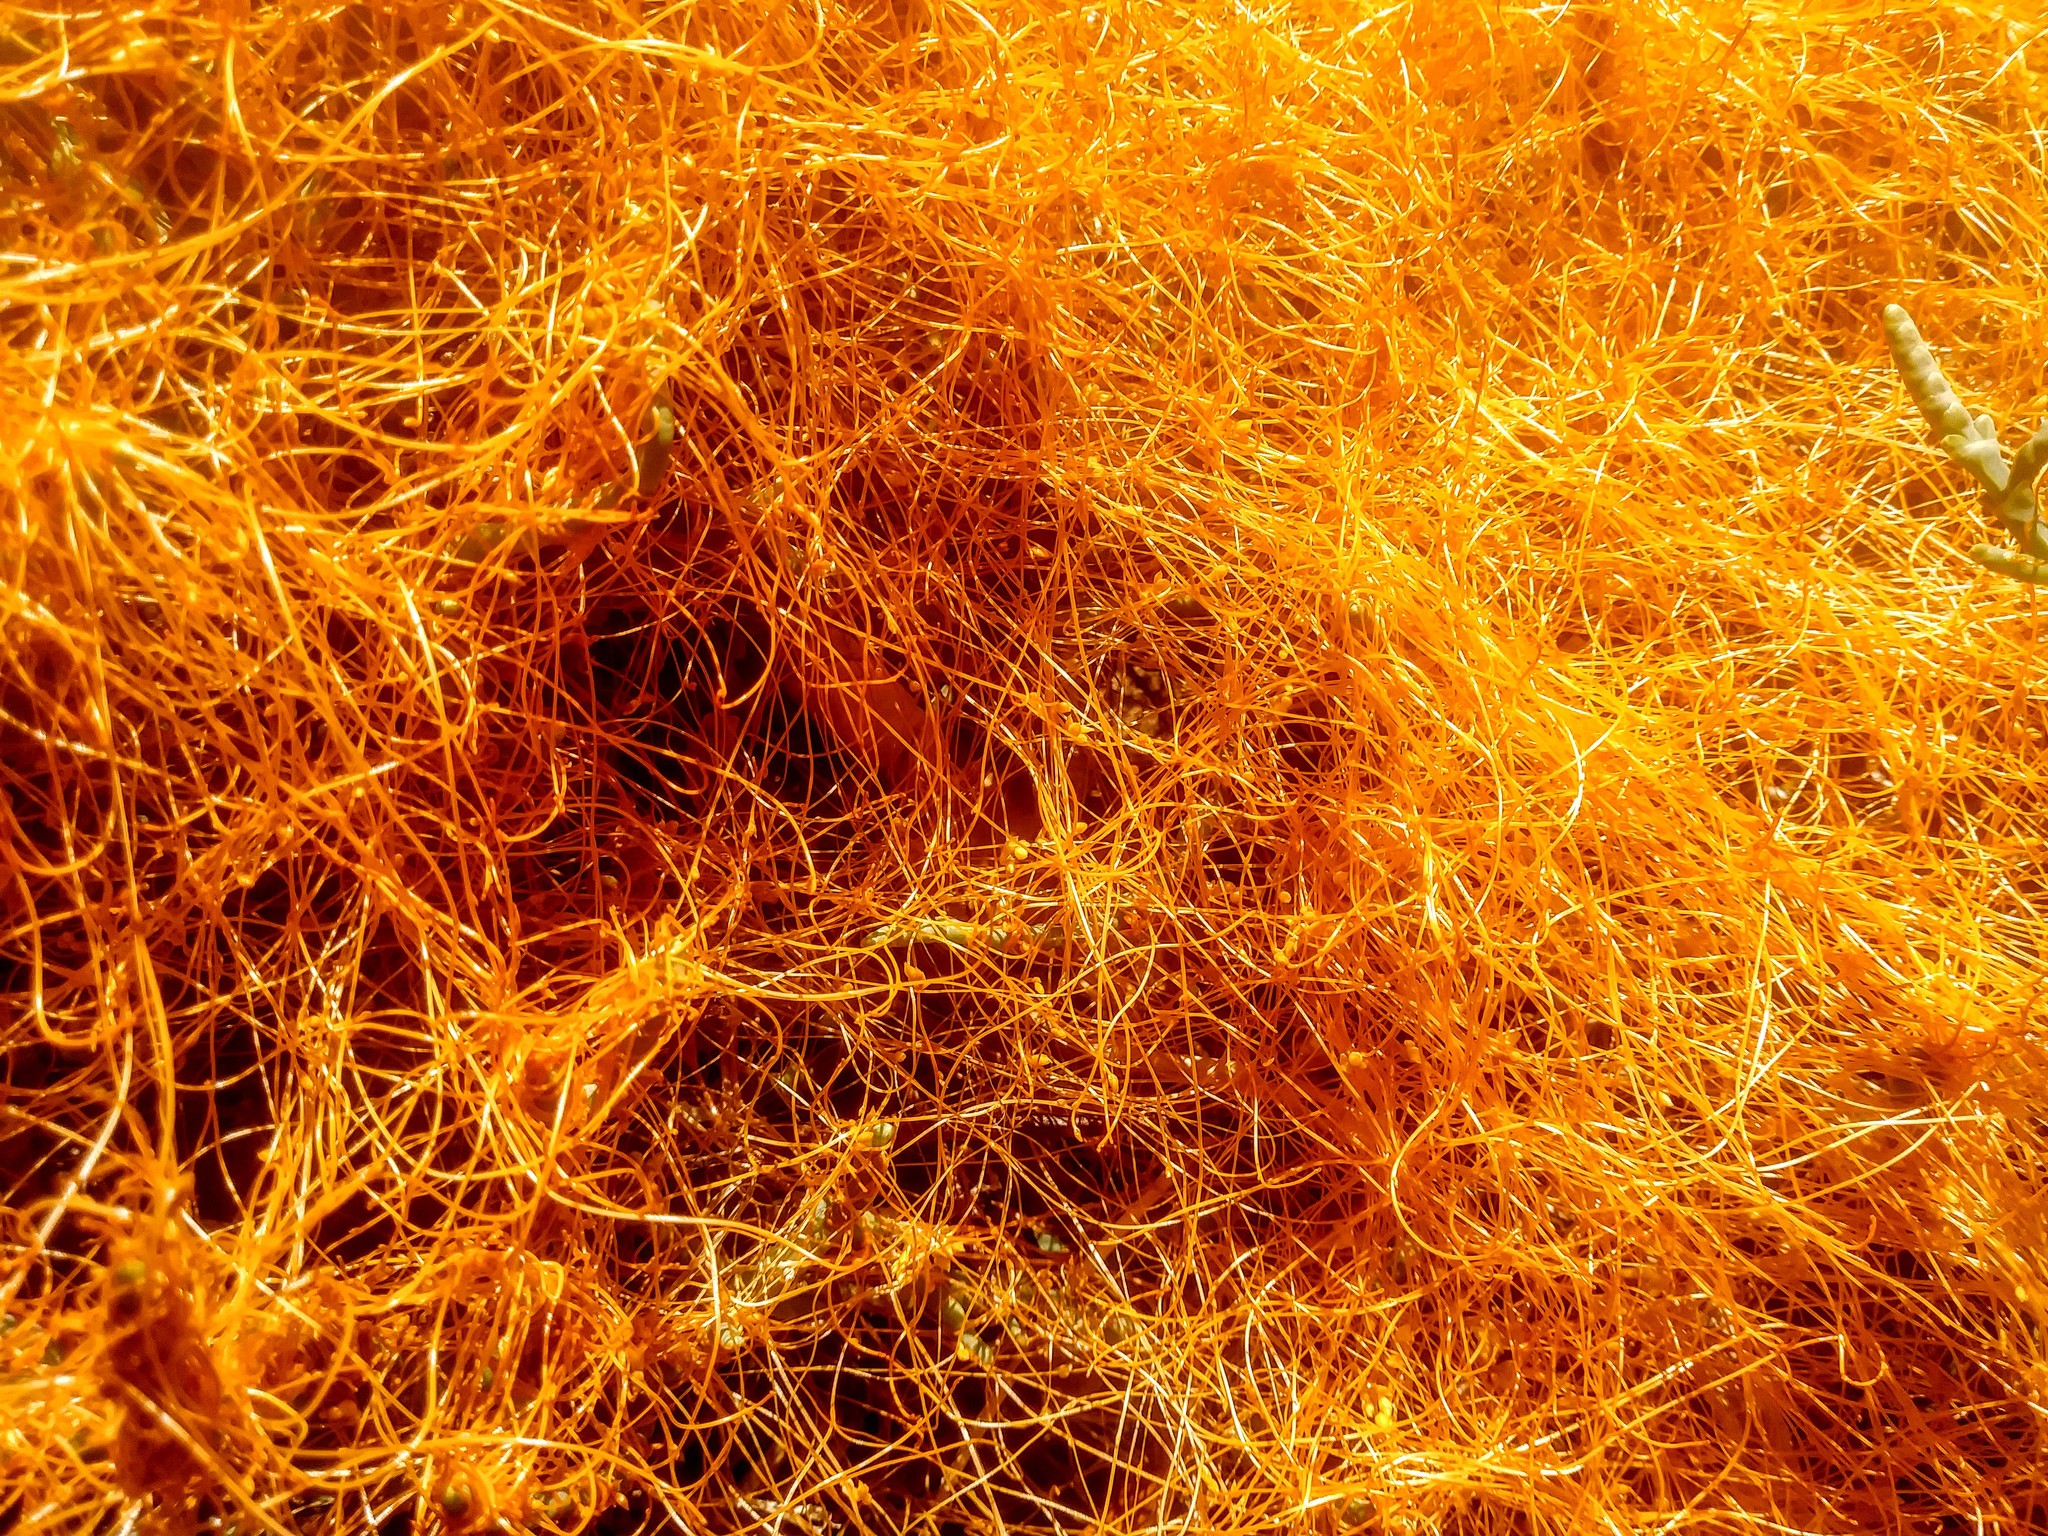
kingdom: Plantae
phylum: Tracheophyta
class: Magnoliopsida
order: Solanales
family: Convolvulaceae
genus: Cuscuta
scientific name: Cuscuta pacifica
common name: Large saltmarsh dodder
